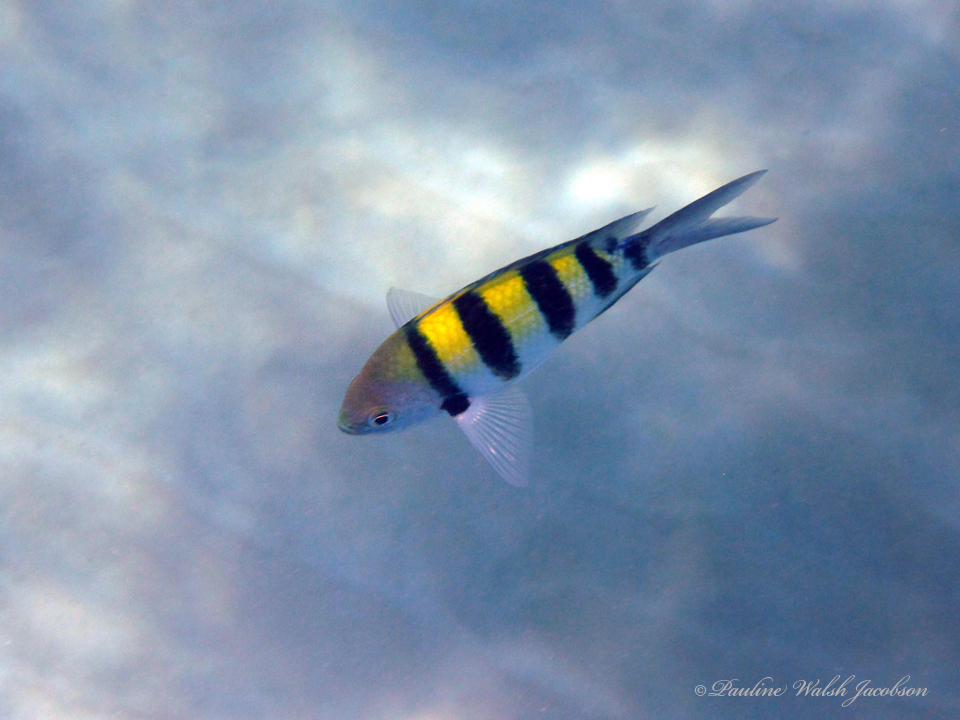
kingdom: Animalia
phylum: Chordata
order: Perciformes
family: Pomacentridae
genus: Abudefduf
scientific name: Abudefduf vaigiensis
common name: Indo-pacific sergeant
